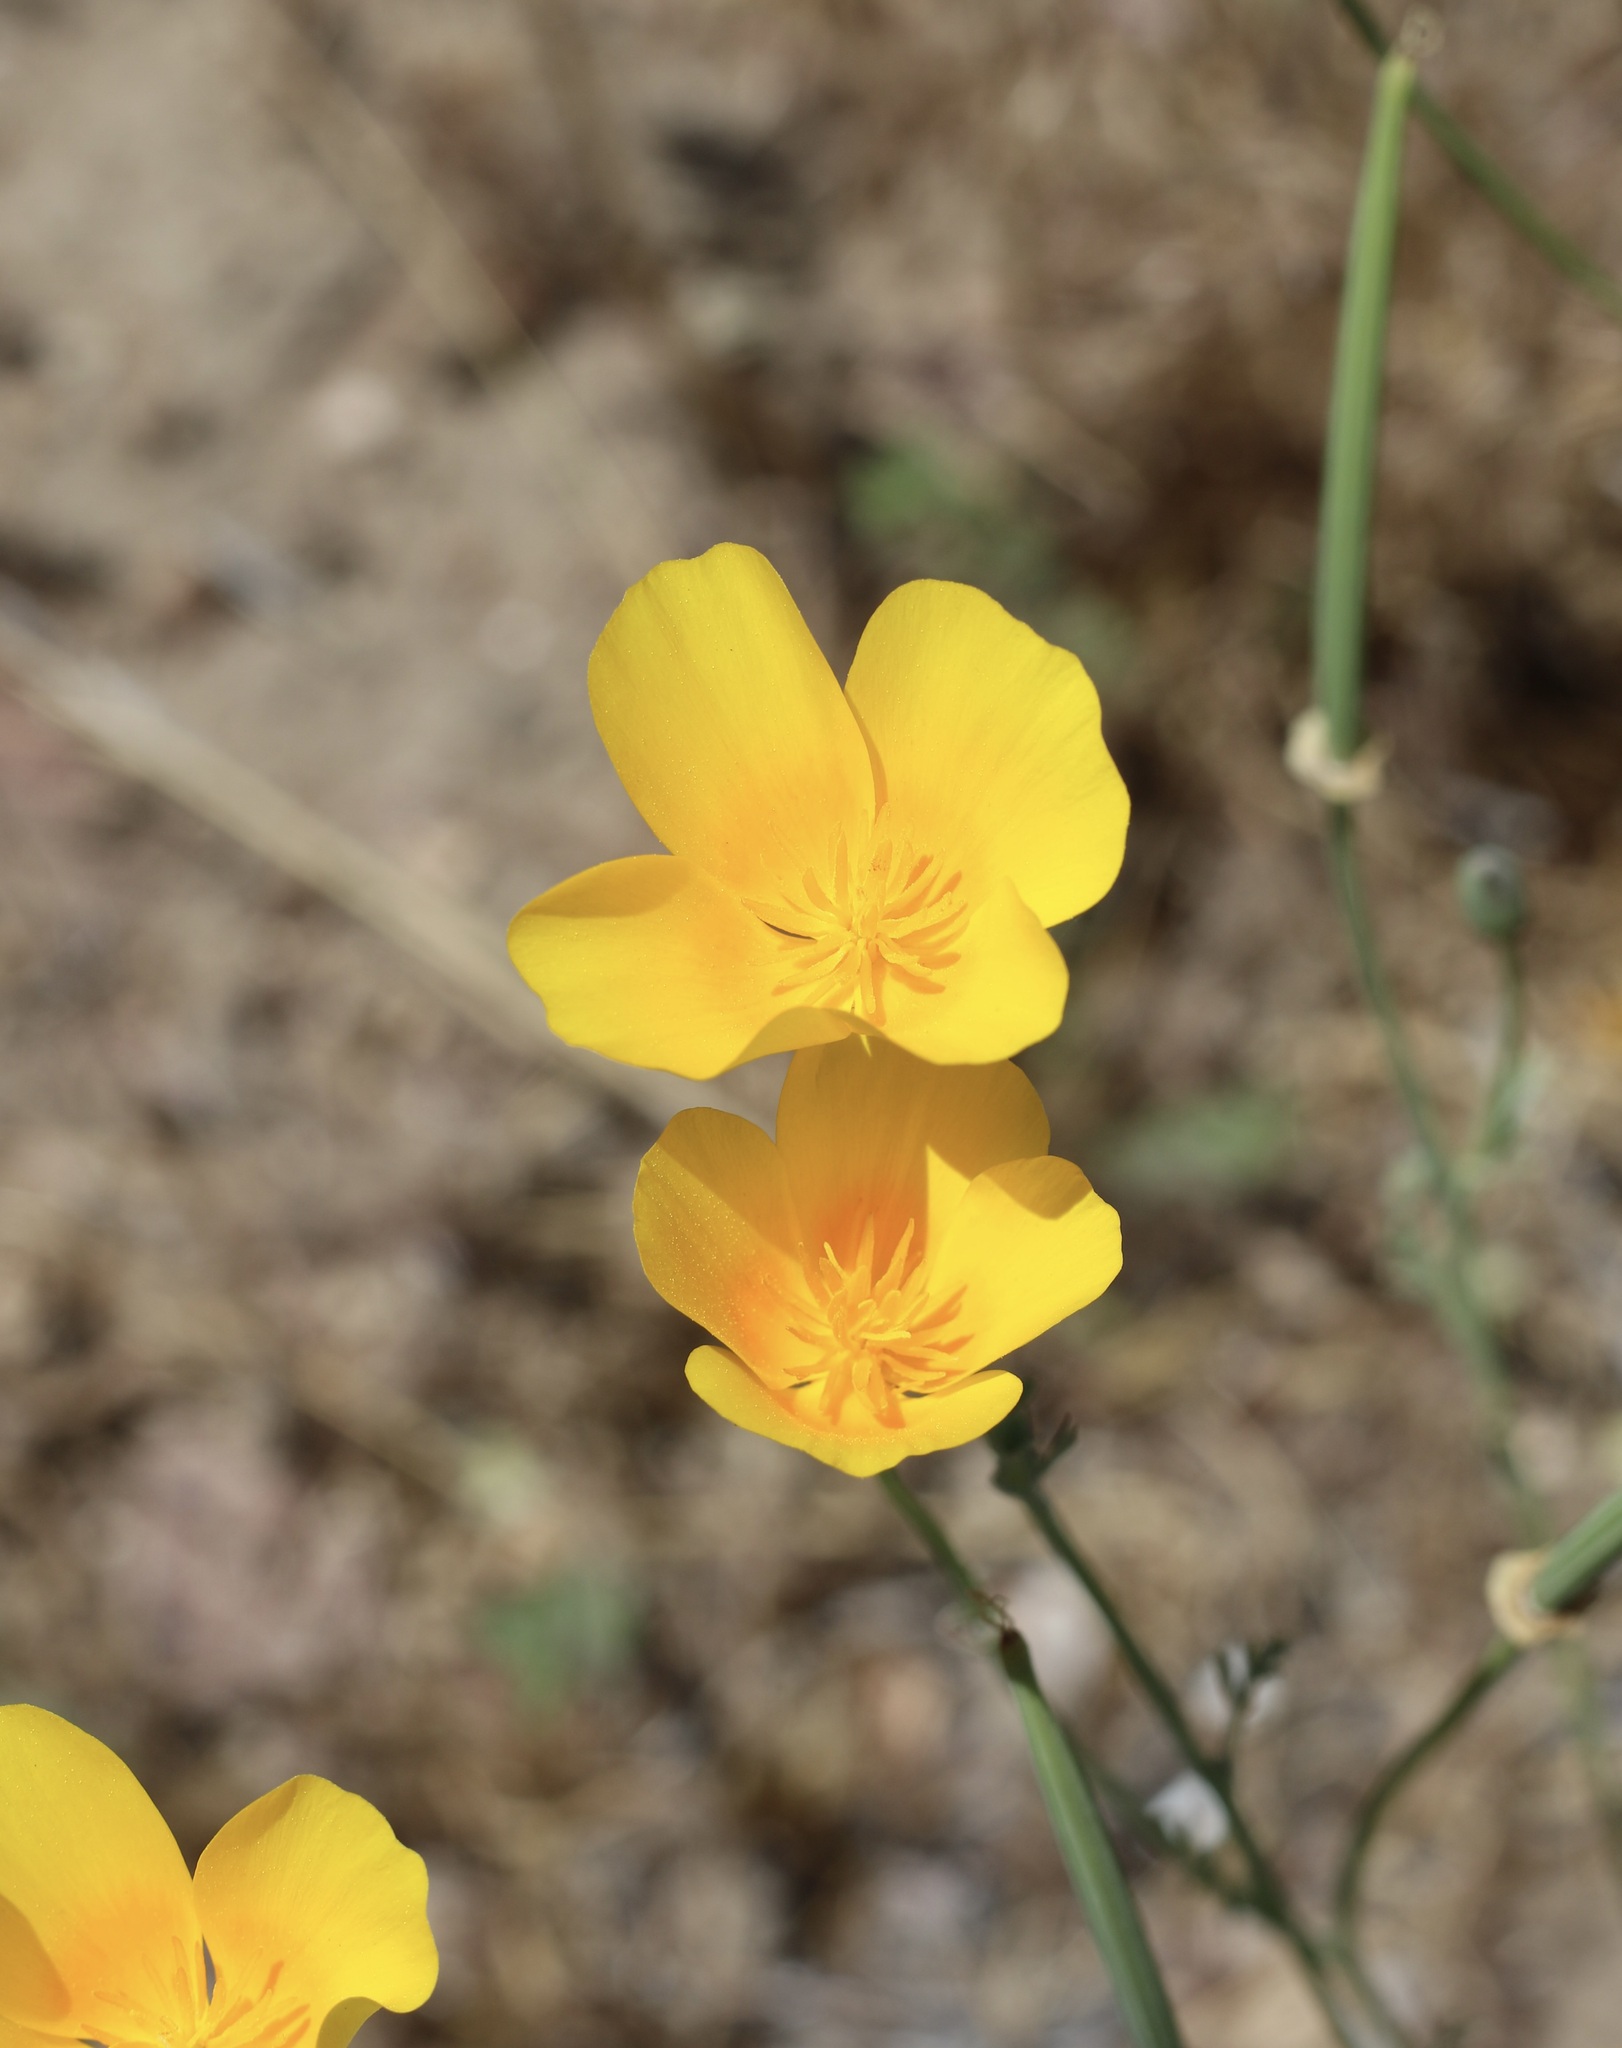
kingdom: Plantae
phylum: Tracheophyta
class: Magnoliopsida
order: Ranunculales
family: Papaveraceae
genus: Eschscholzia
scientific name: Eschscholzia californica
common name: California poppy
